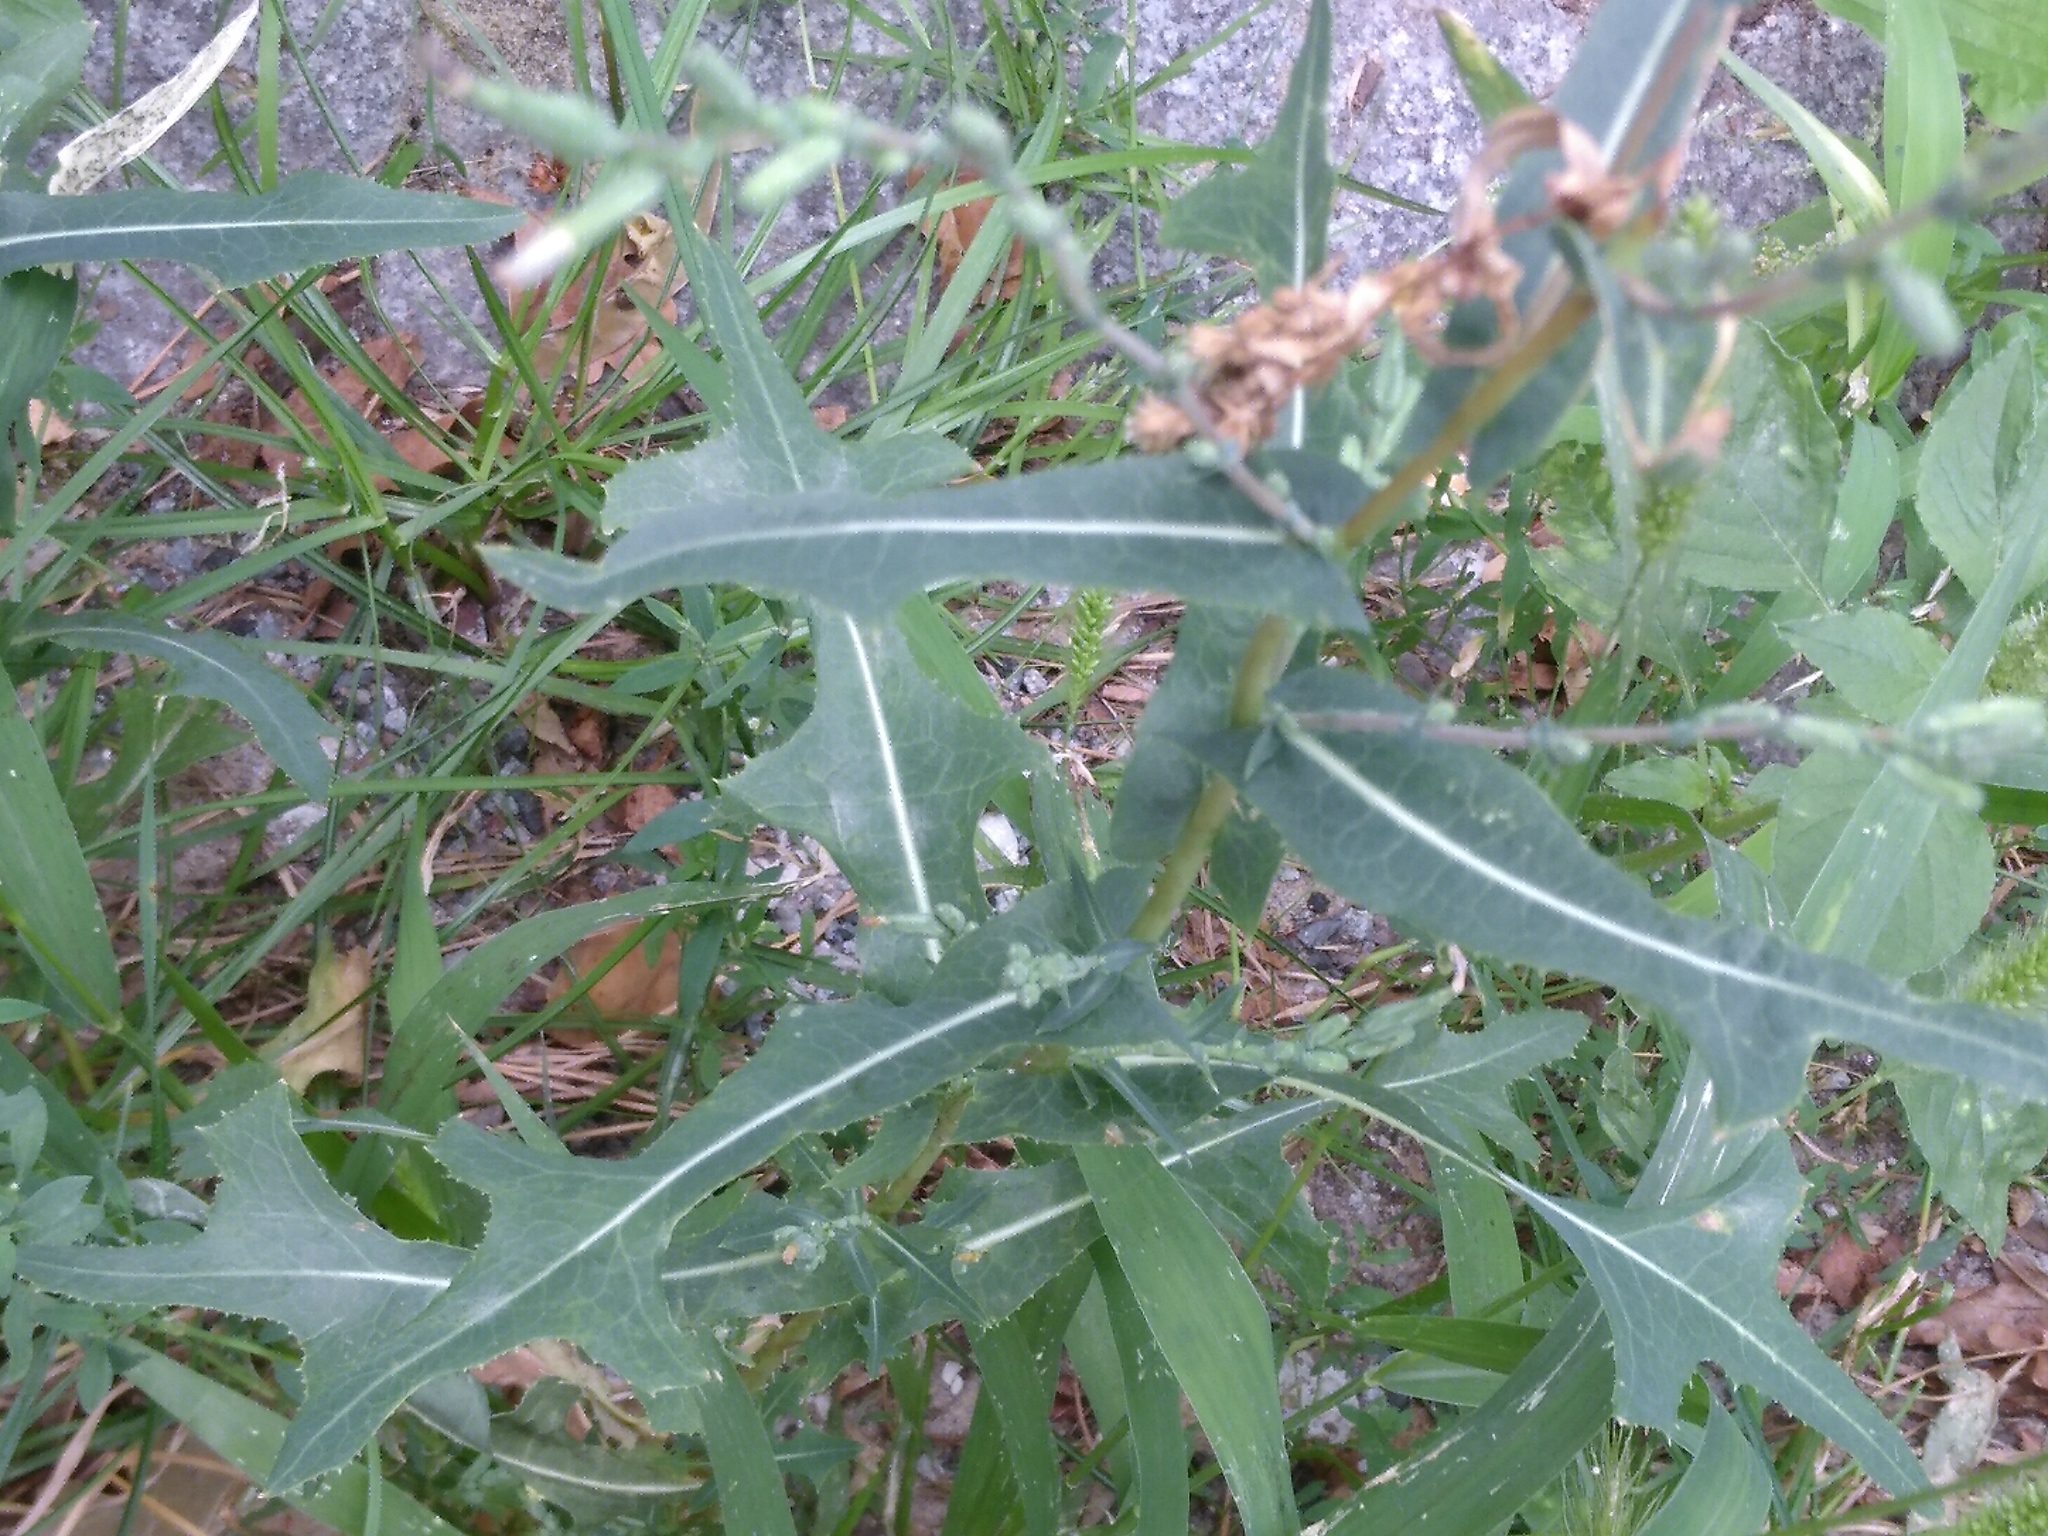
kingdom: Plantae
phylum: Tracheophyta
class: Magnoliopsida
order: Solanales
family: Solanaceae
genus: Solanum
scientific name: Solanum nigrum
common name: Black nightshade
